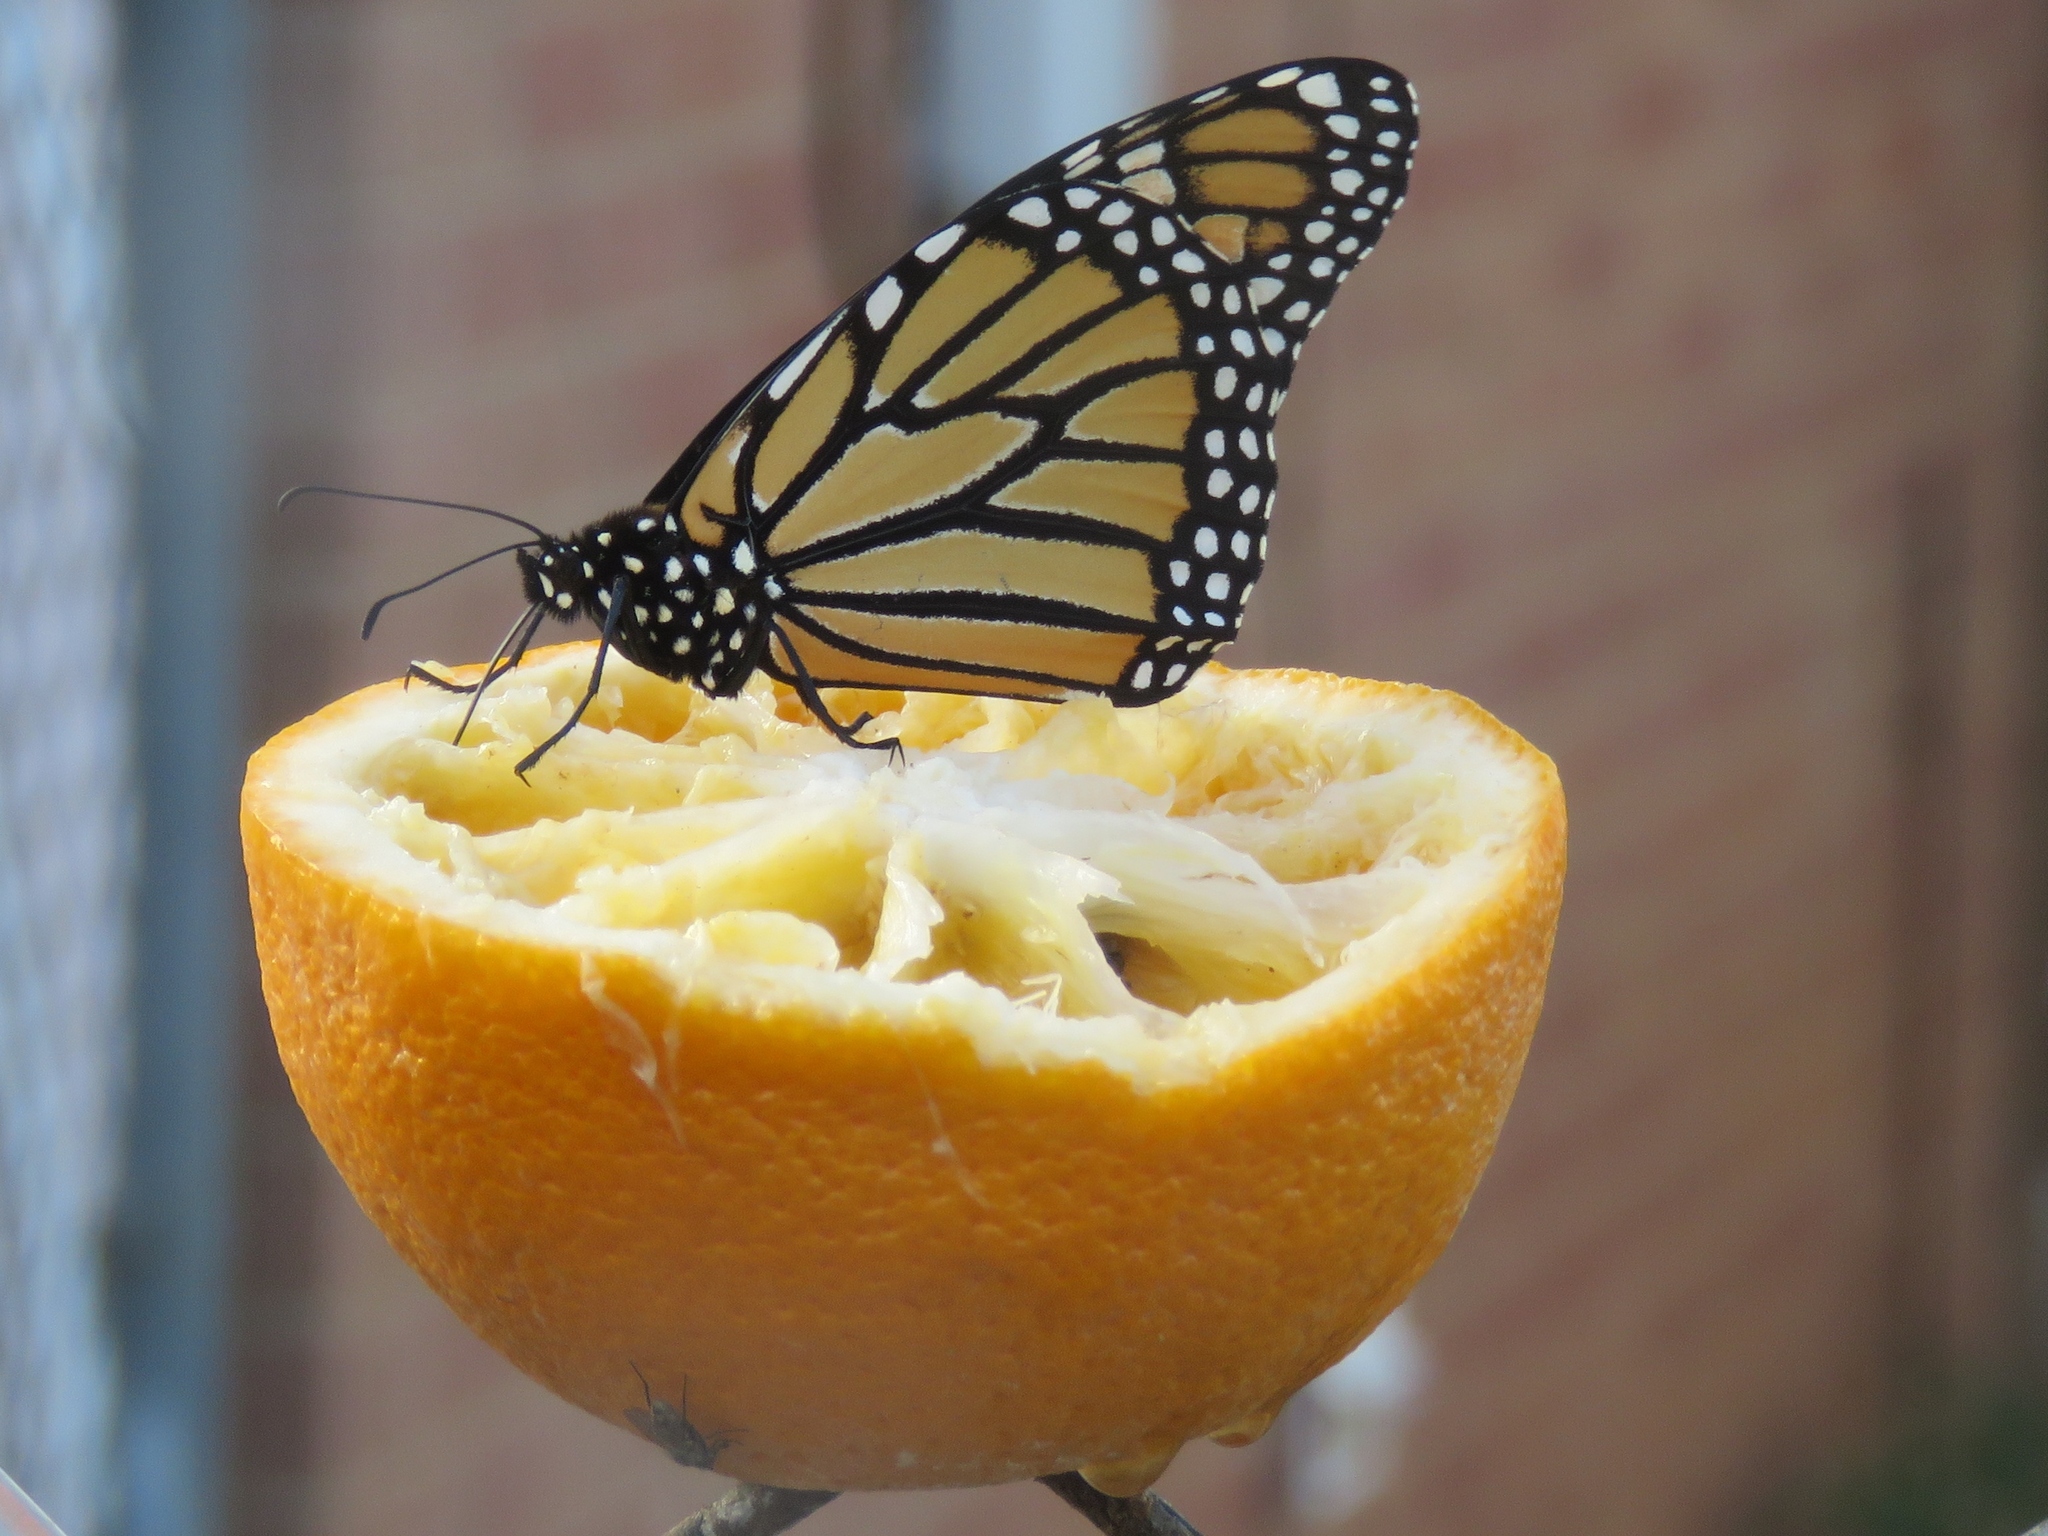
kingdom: Animalia
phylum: Arthropoda
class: Insecta
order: Lepidoptera
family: Nymphalidae
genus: Danaus
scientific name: Danaus plexippus
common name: Monarch
